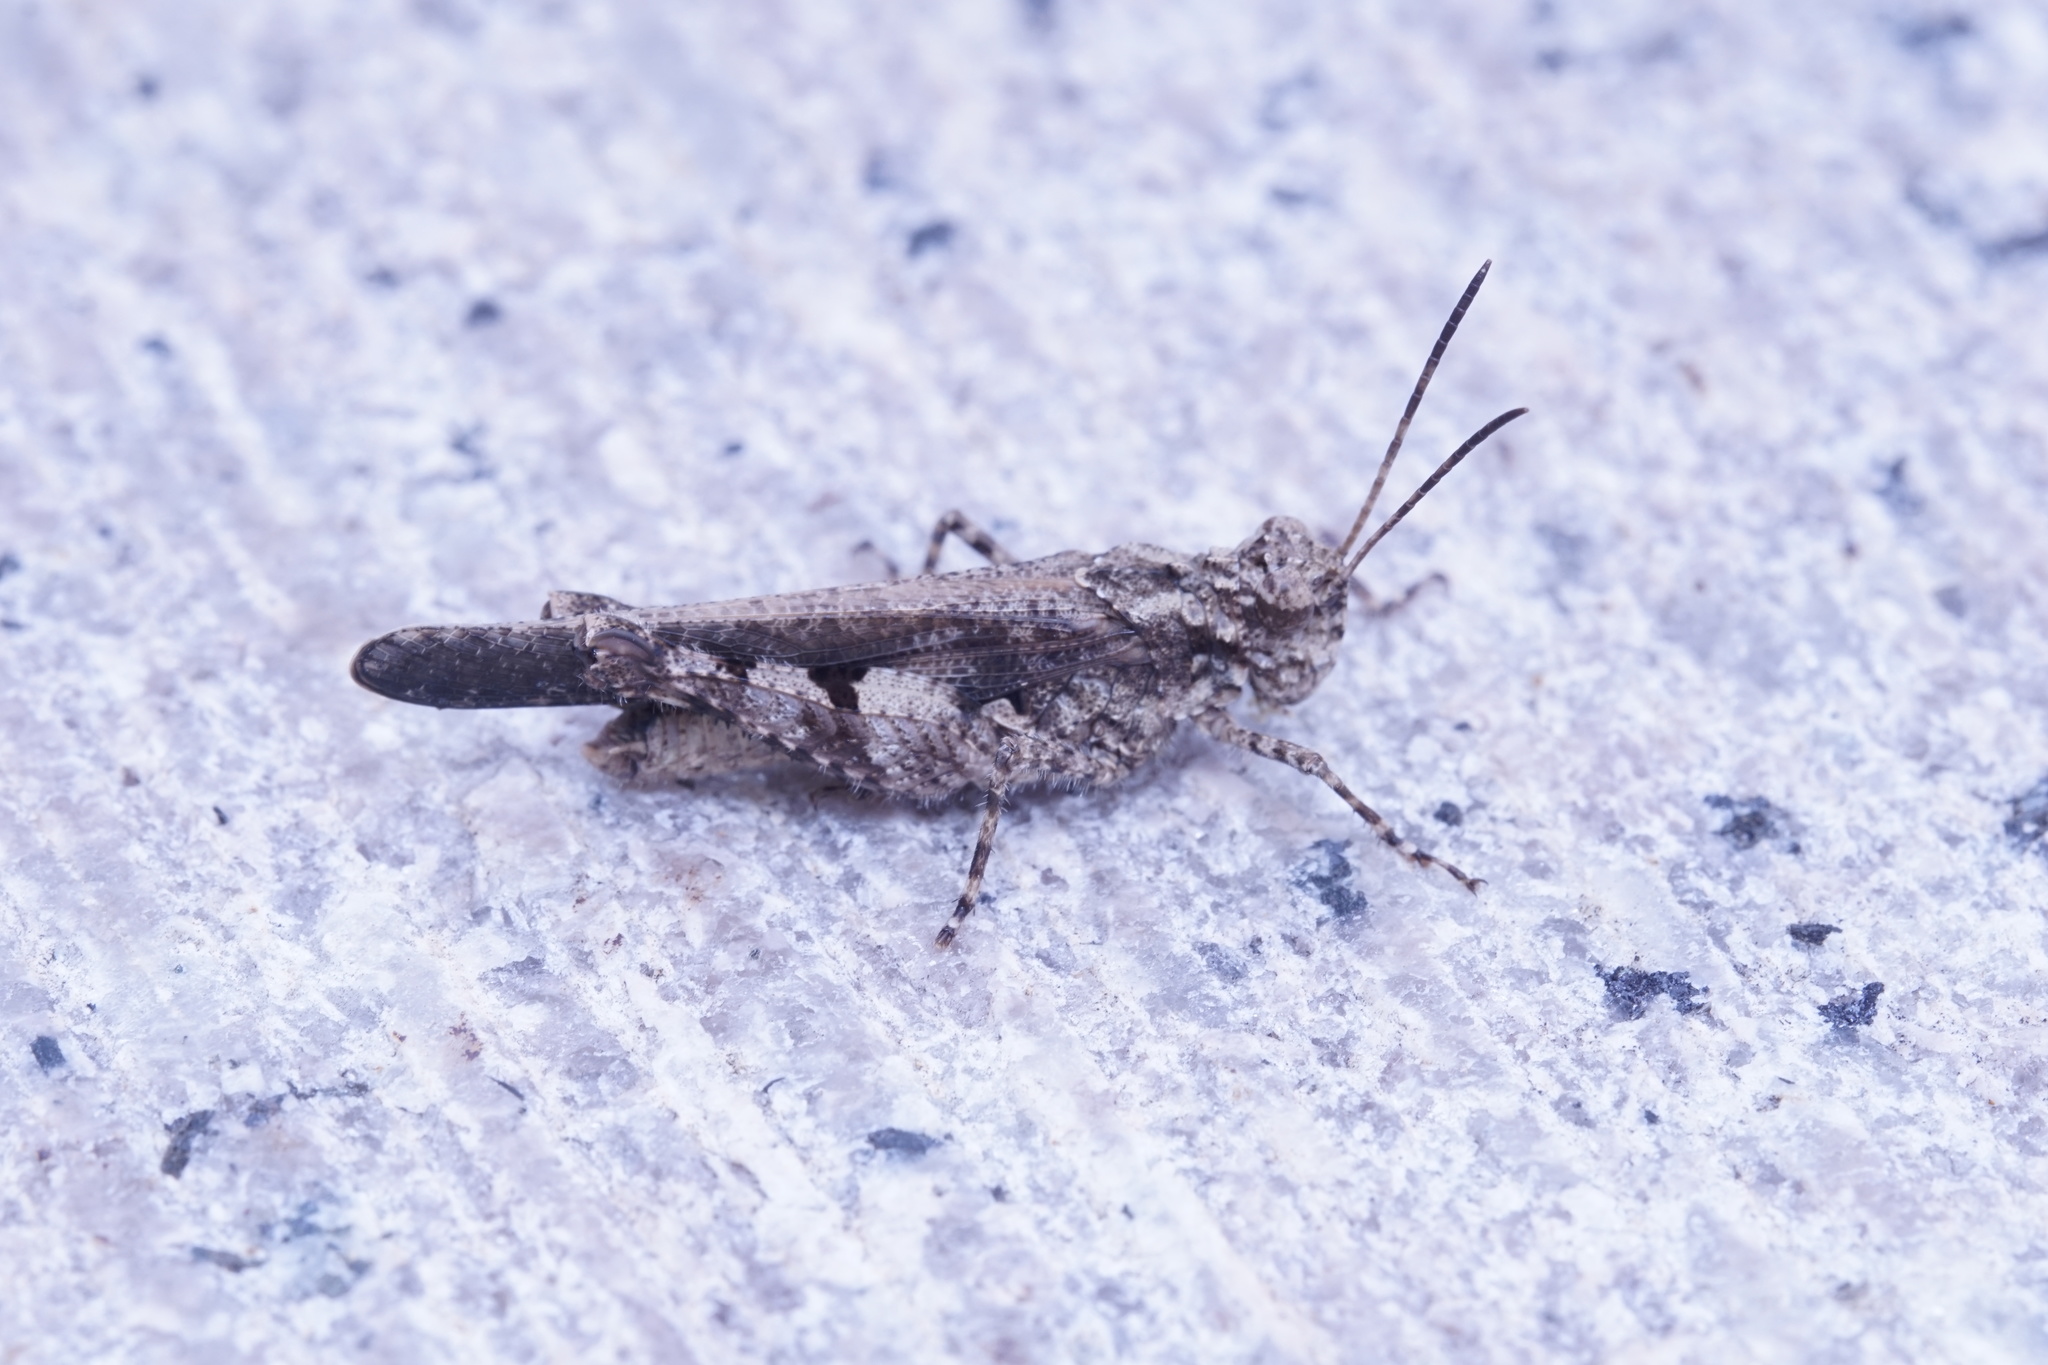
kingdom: Animalia
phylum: Arthropoda
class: Insecta
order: Orthoptera
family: Acrididae
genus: Trilophidia
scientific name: Trilophidia annulata
